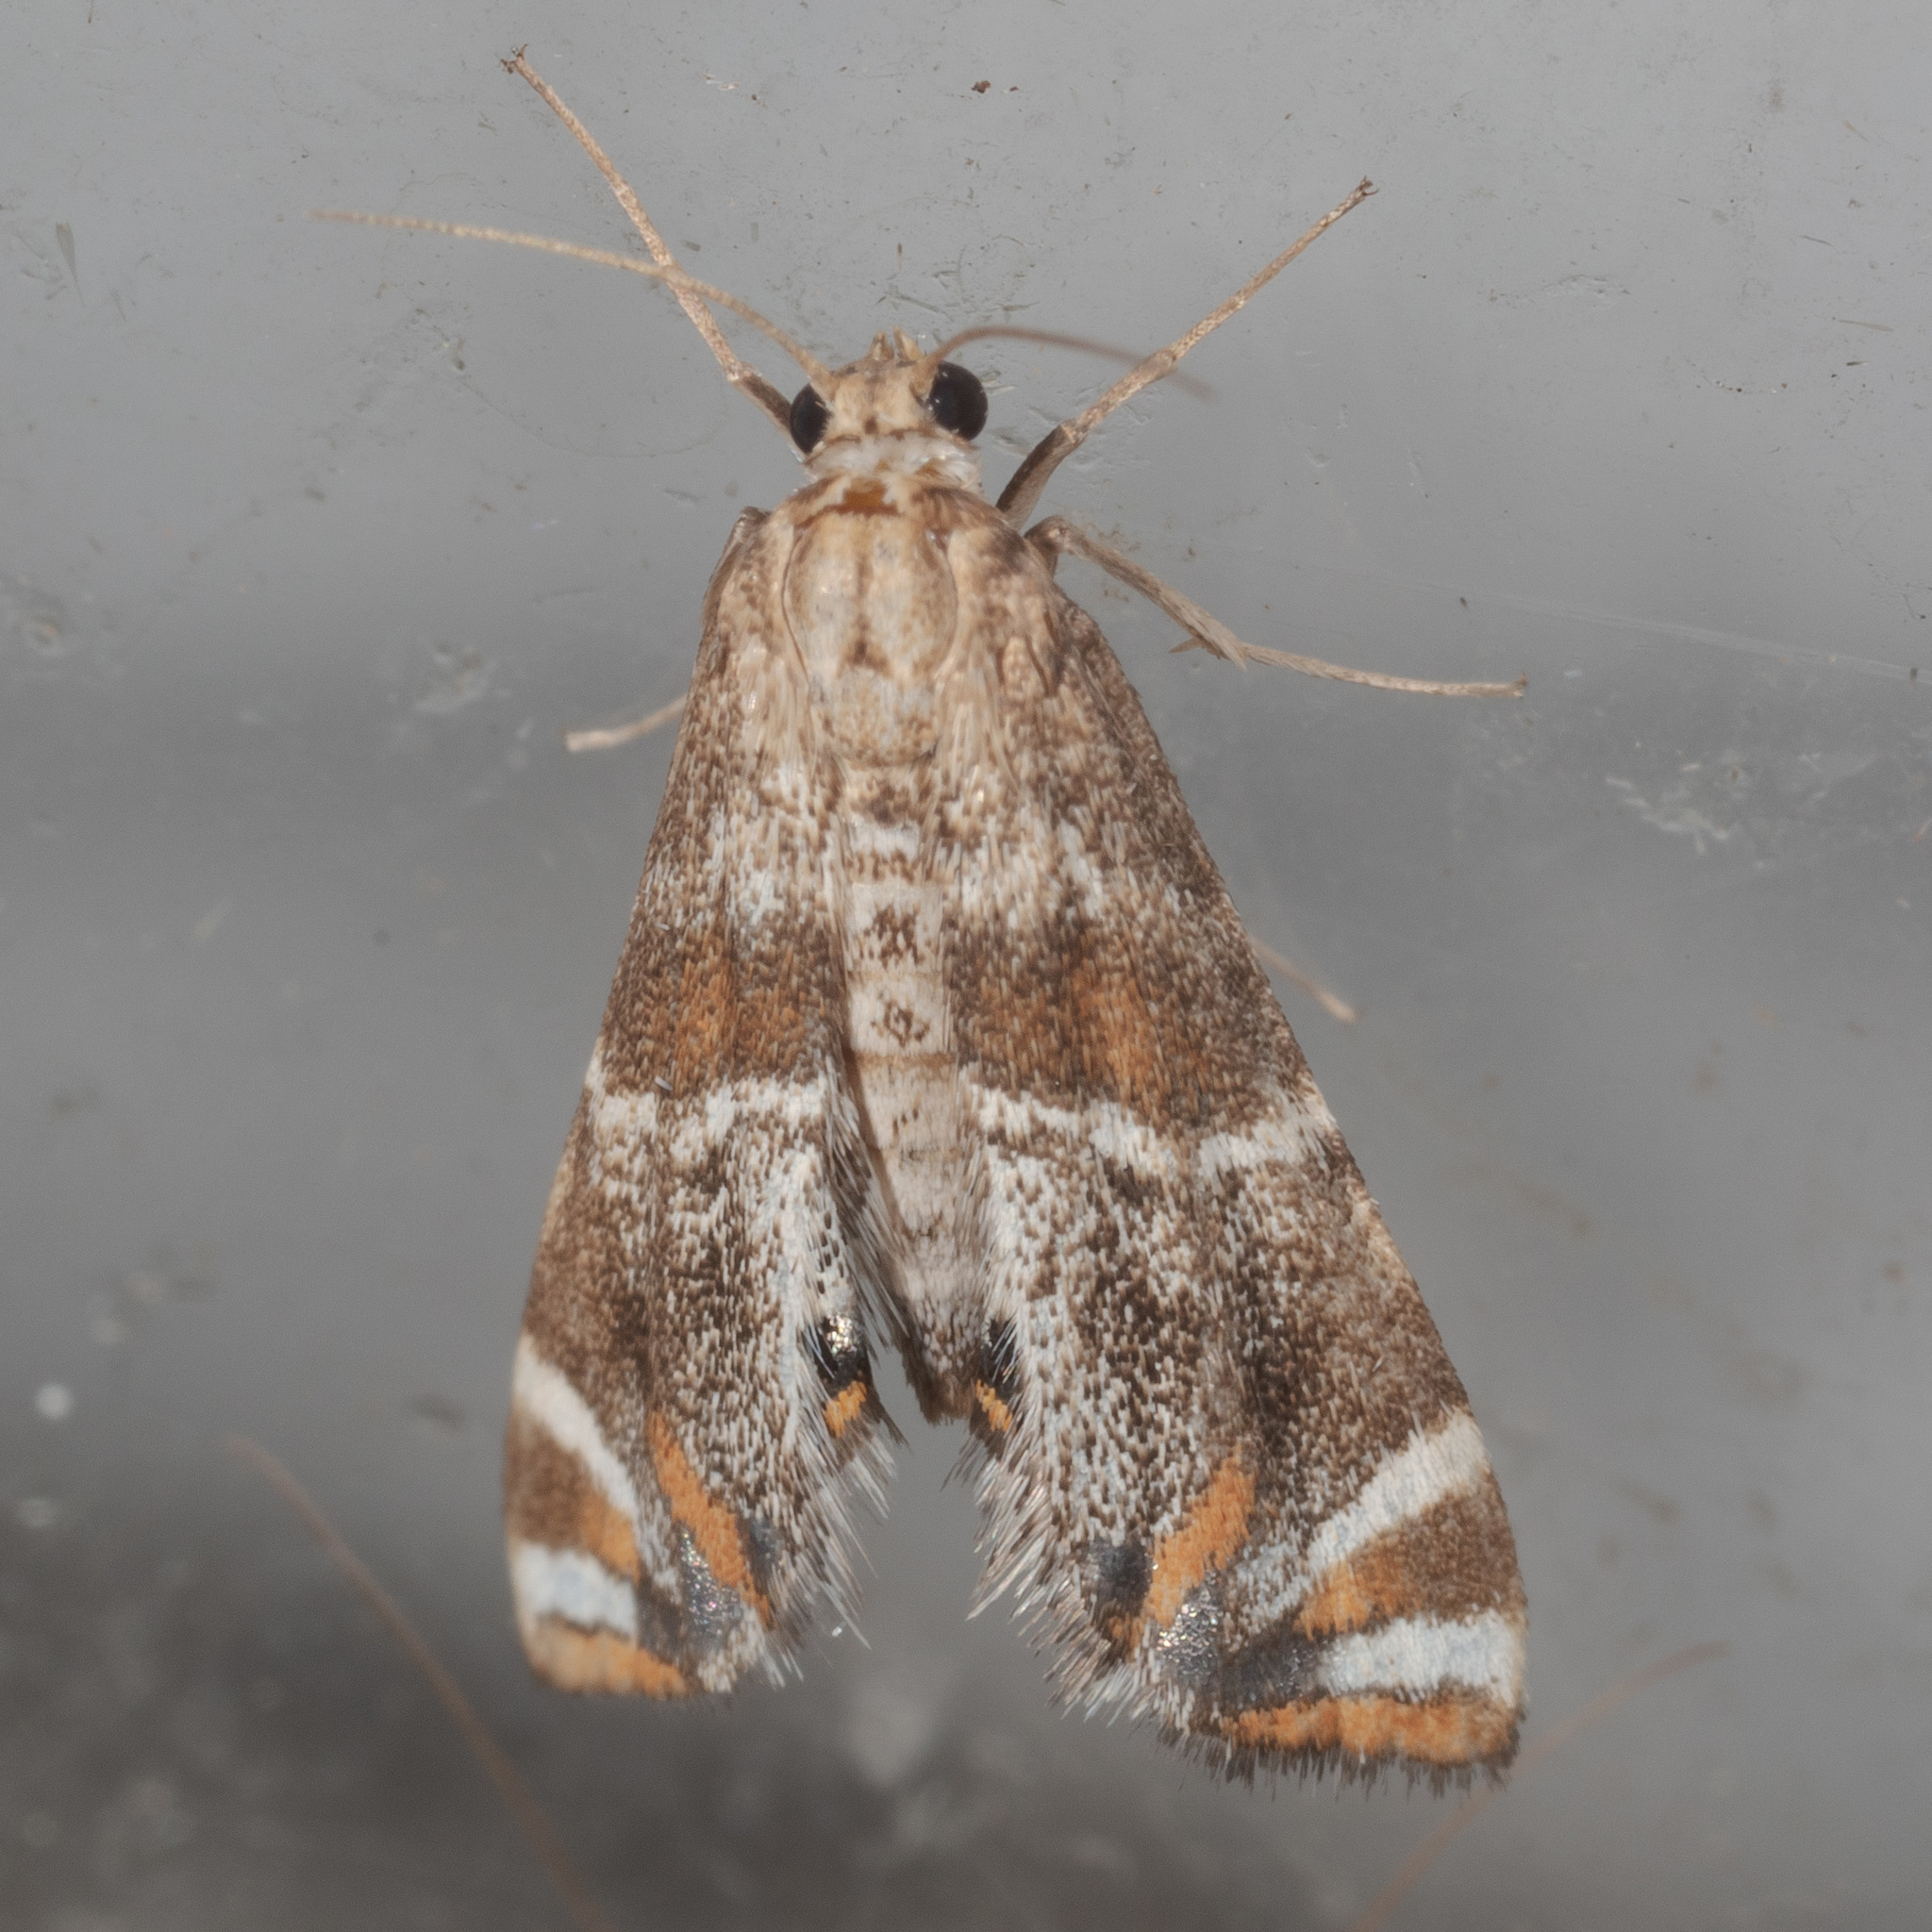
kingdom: Animalia
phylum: Arthropoda
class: Insecta
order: Lepidoptera
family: Crambidae
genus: Petrophila
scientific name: Petrophila jaliscalis
